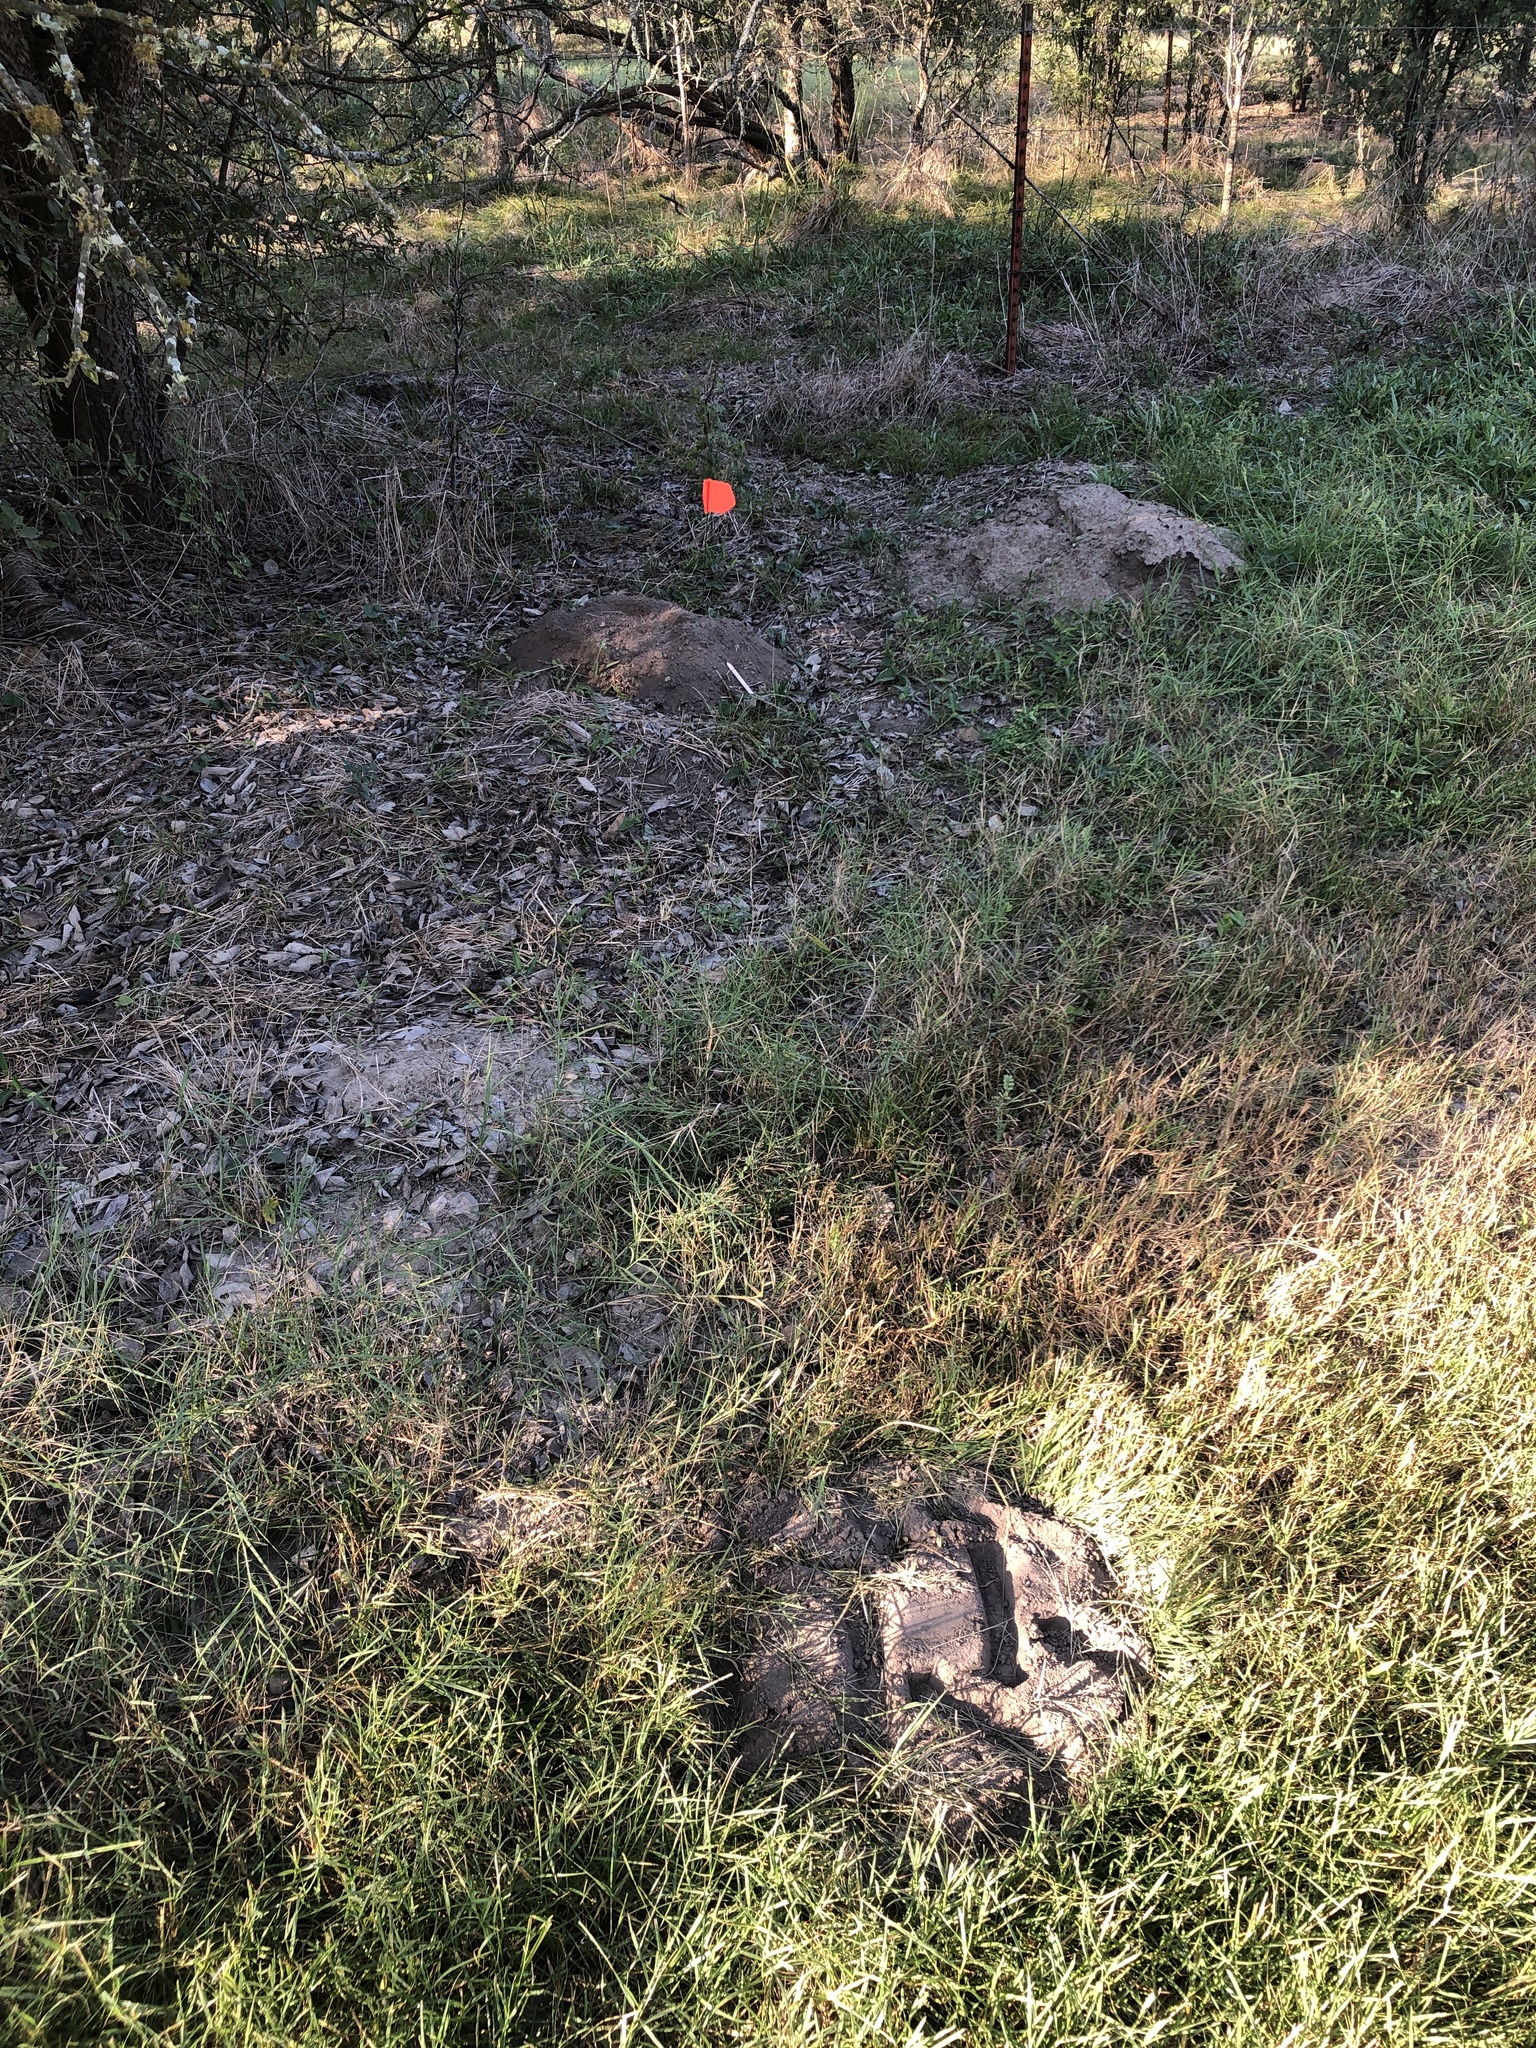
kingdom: Animalia
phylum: Chordata
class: Mammalia
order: Rodentia
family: Geomyidae
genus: Geomys
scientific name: Geomys attwateri
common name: Attwater's pocket gopher
